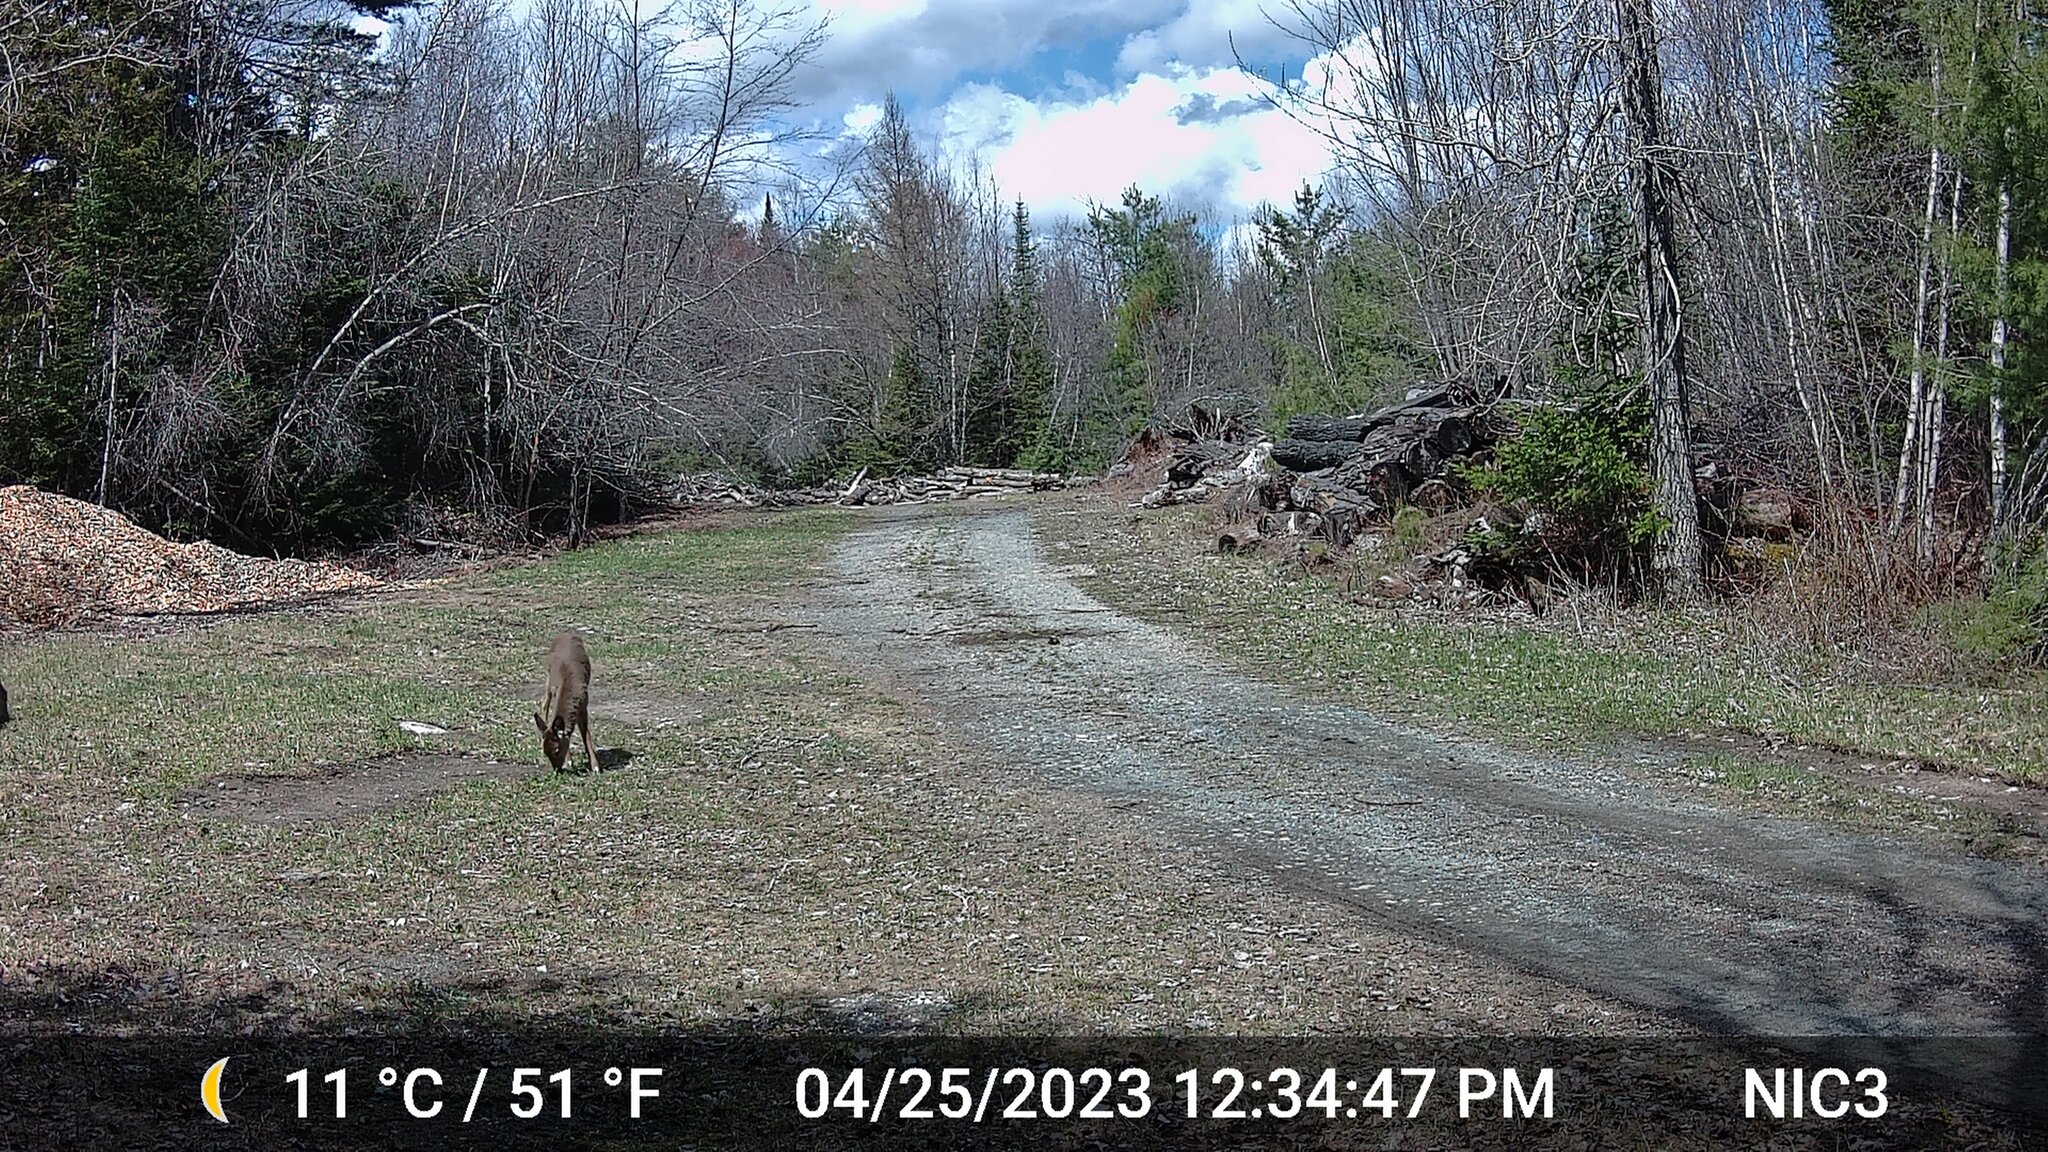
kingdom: Animalia
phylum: Chordata
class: Mammalia
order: Artiodactyla
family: Cervidae
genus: Odocoileus
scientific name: Odocoileus virginianus
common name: White-tailed deer
